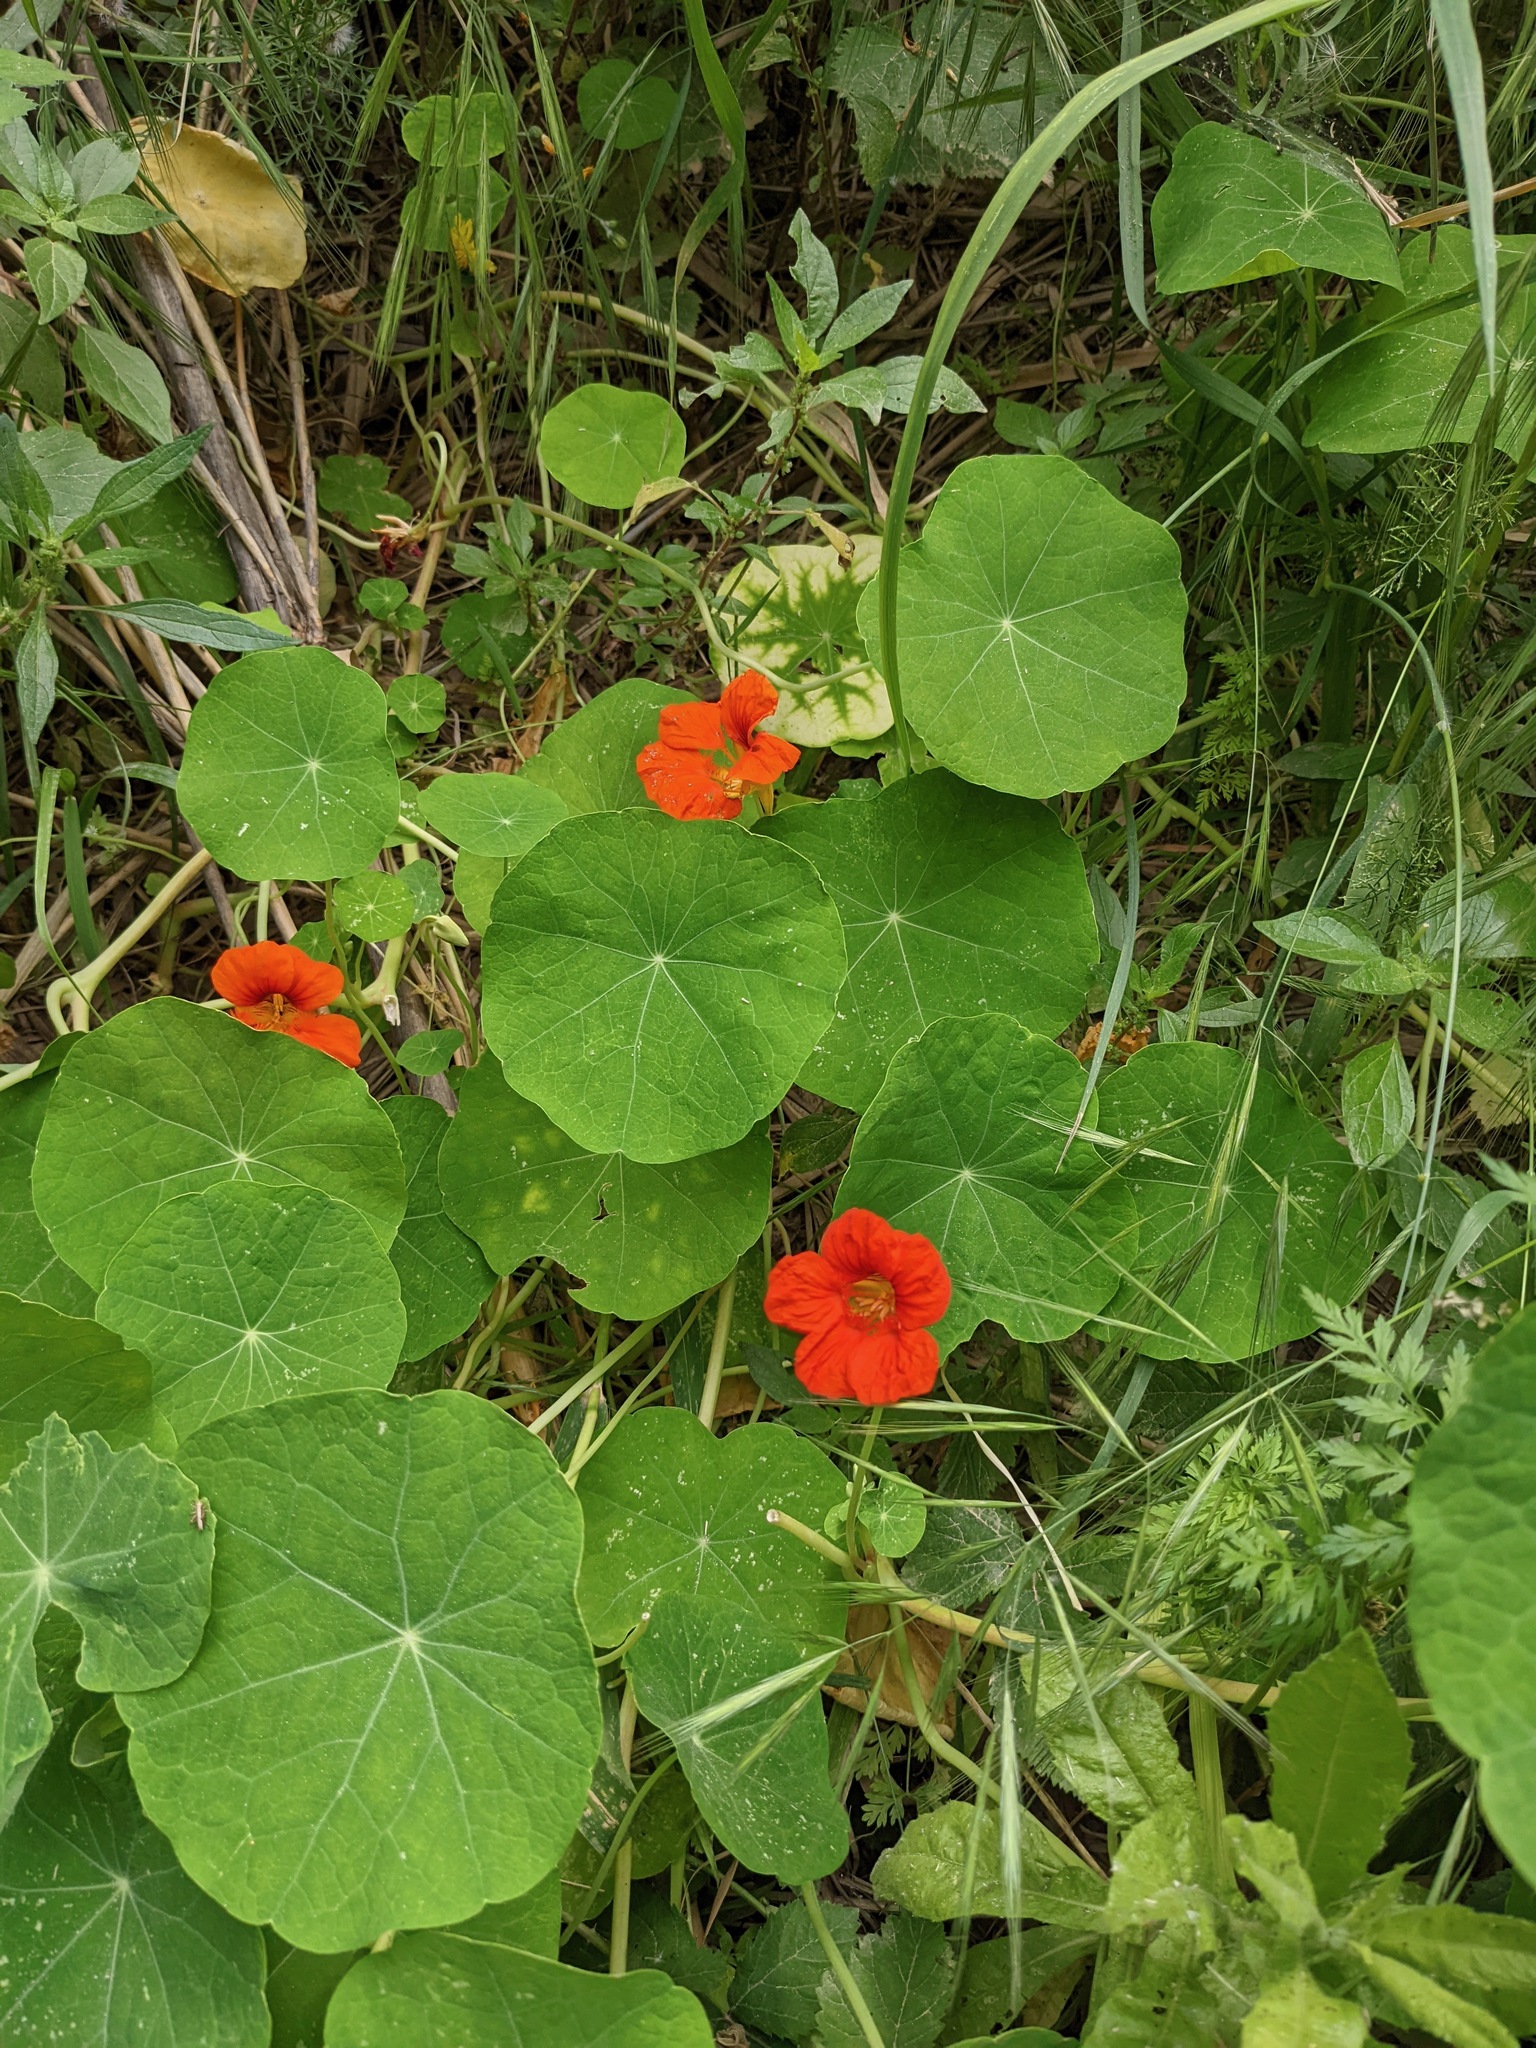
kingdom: Plantae
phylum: Tracheophyta
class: Magnoliopsida
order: Brassicales
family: Tropaeolaceae
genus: Tropaeolum
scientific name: Tropaeolum majus
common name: Nasturtium
